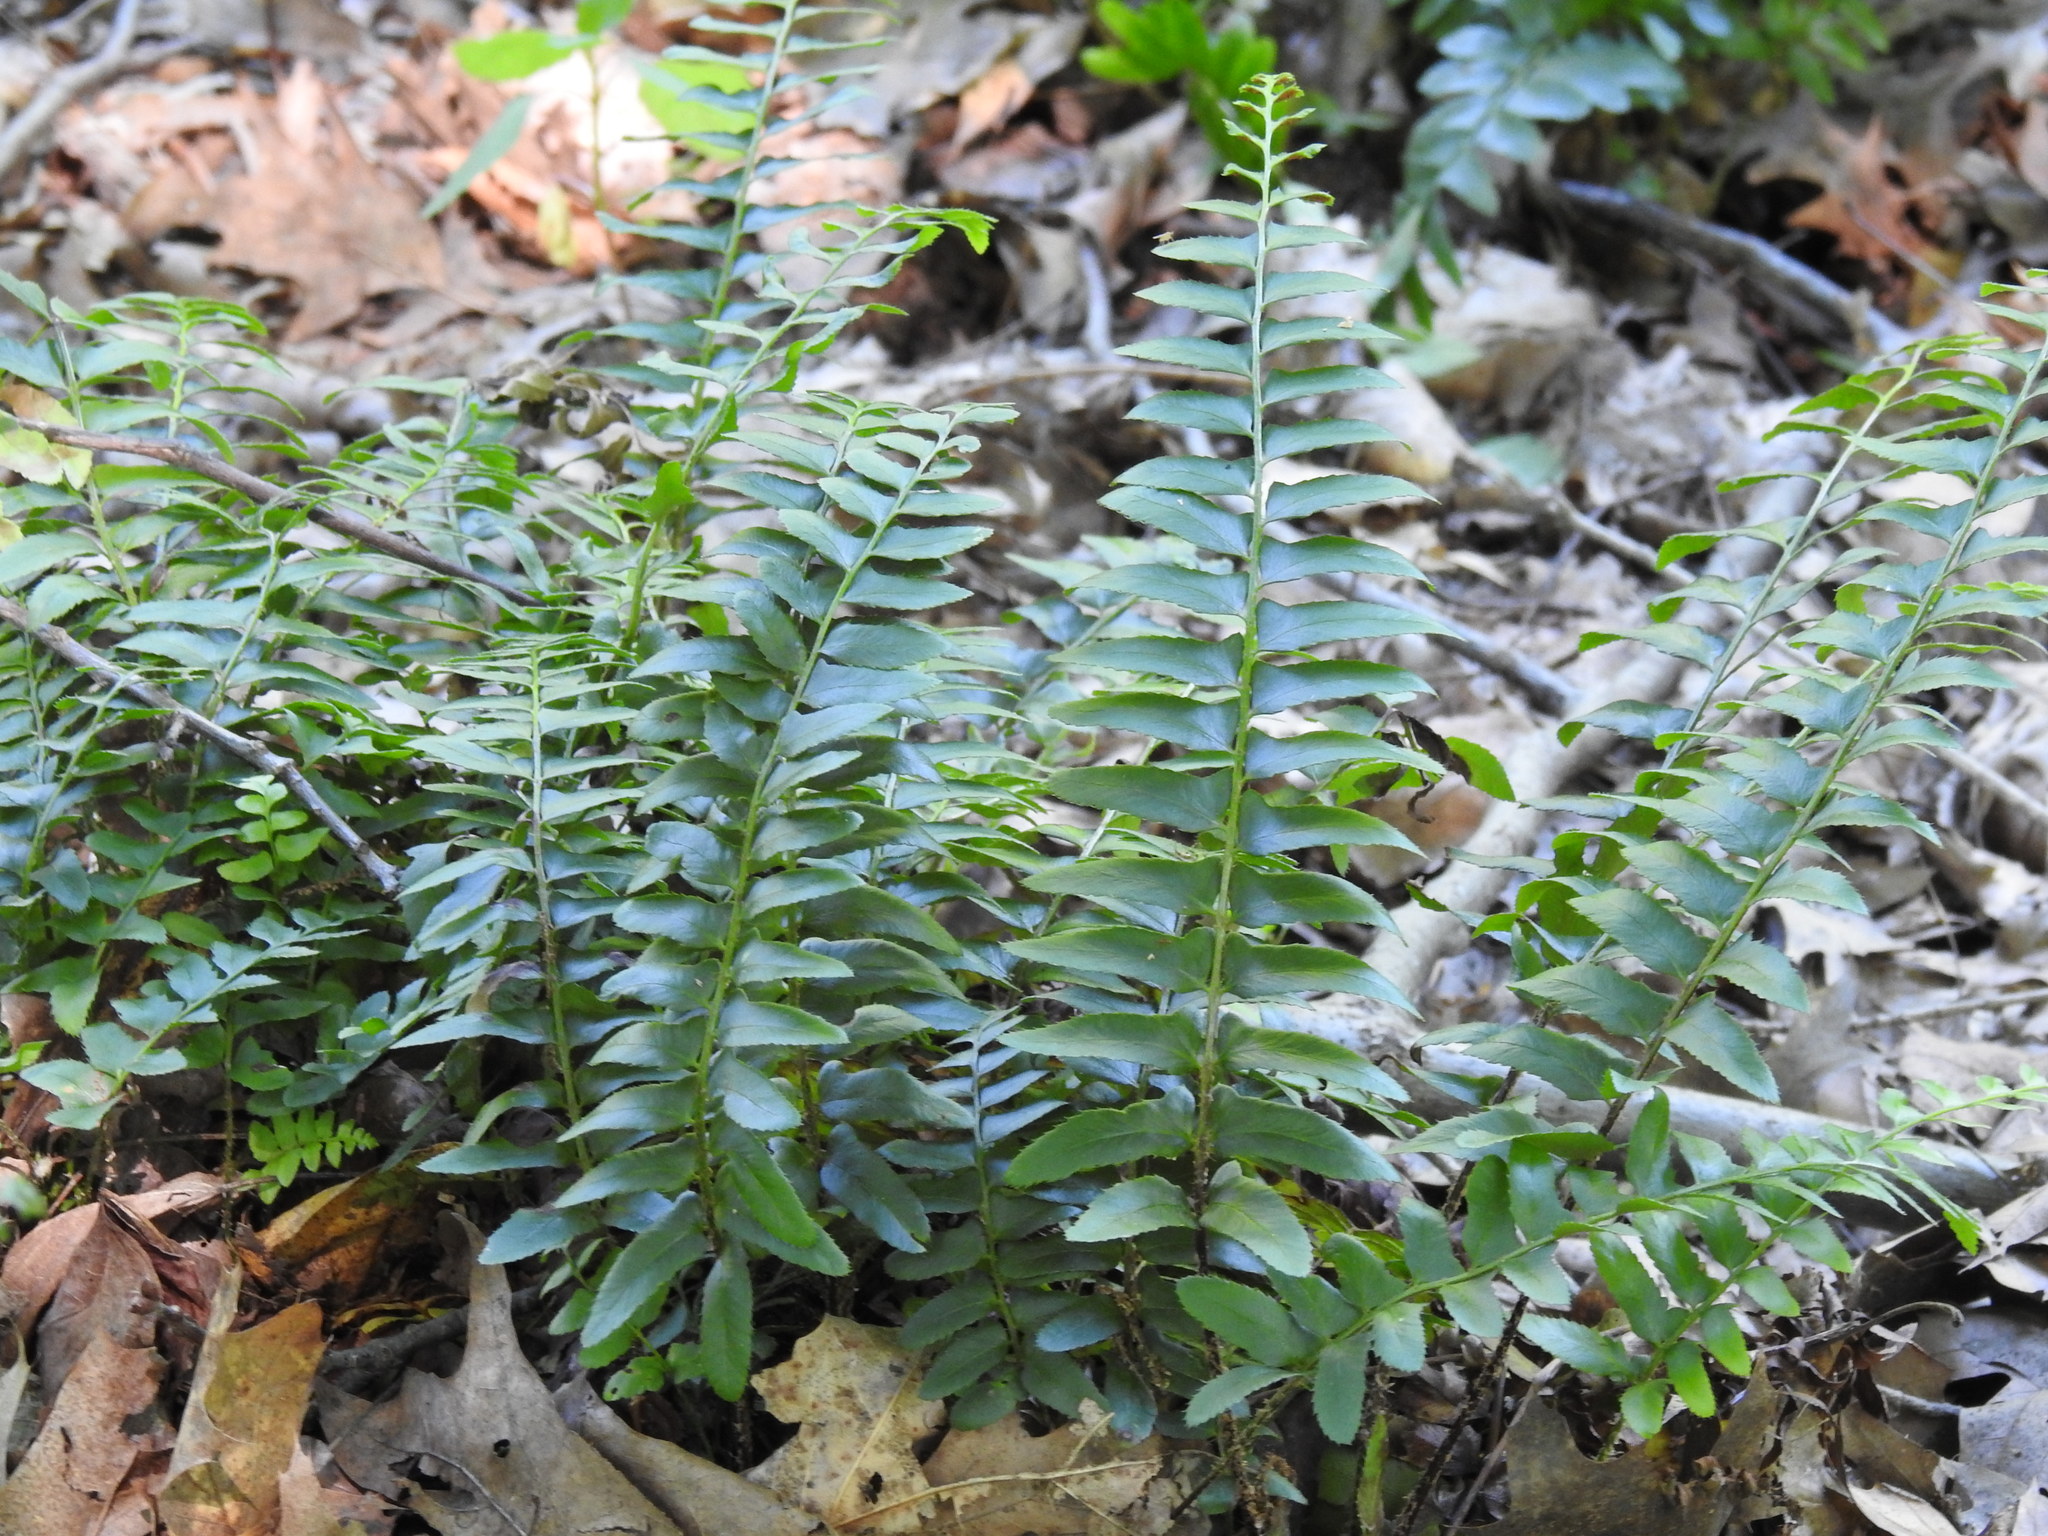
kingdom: Plantae
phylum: Tracheophyta
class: Polypodiopsida
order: Polypodiales
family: Dryopteridaceae
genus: Polystichum
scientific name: Polystichum acrostichoides
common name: Christmas fern
